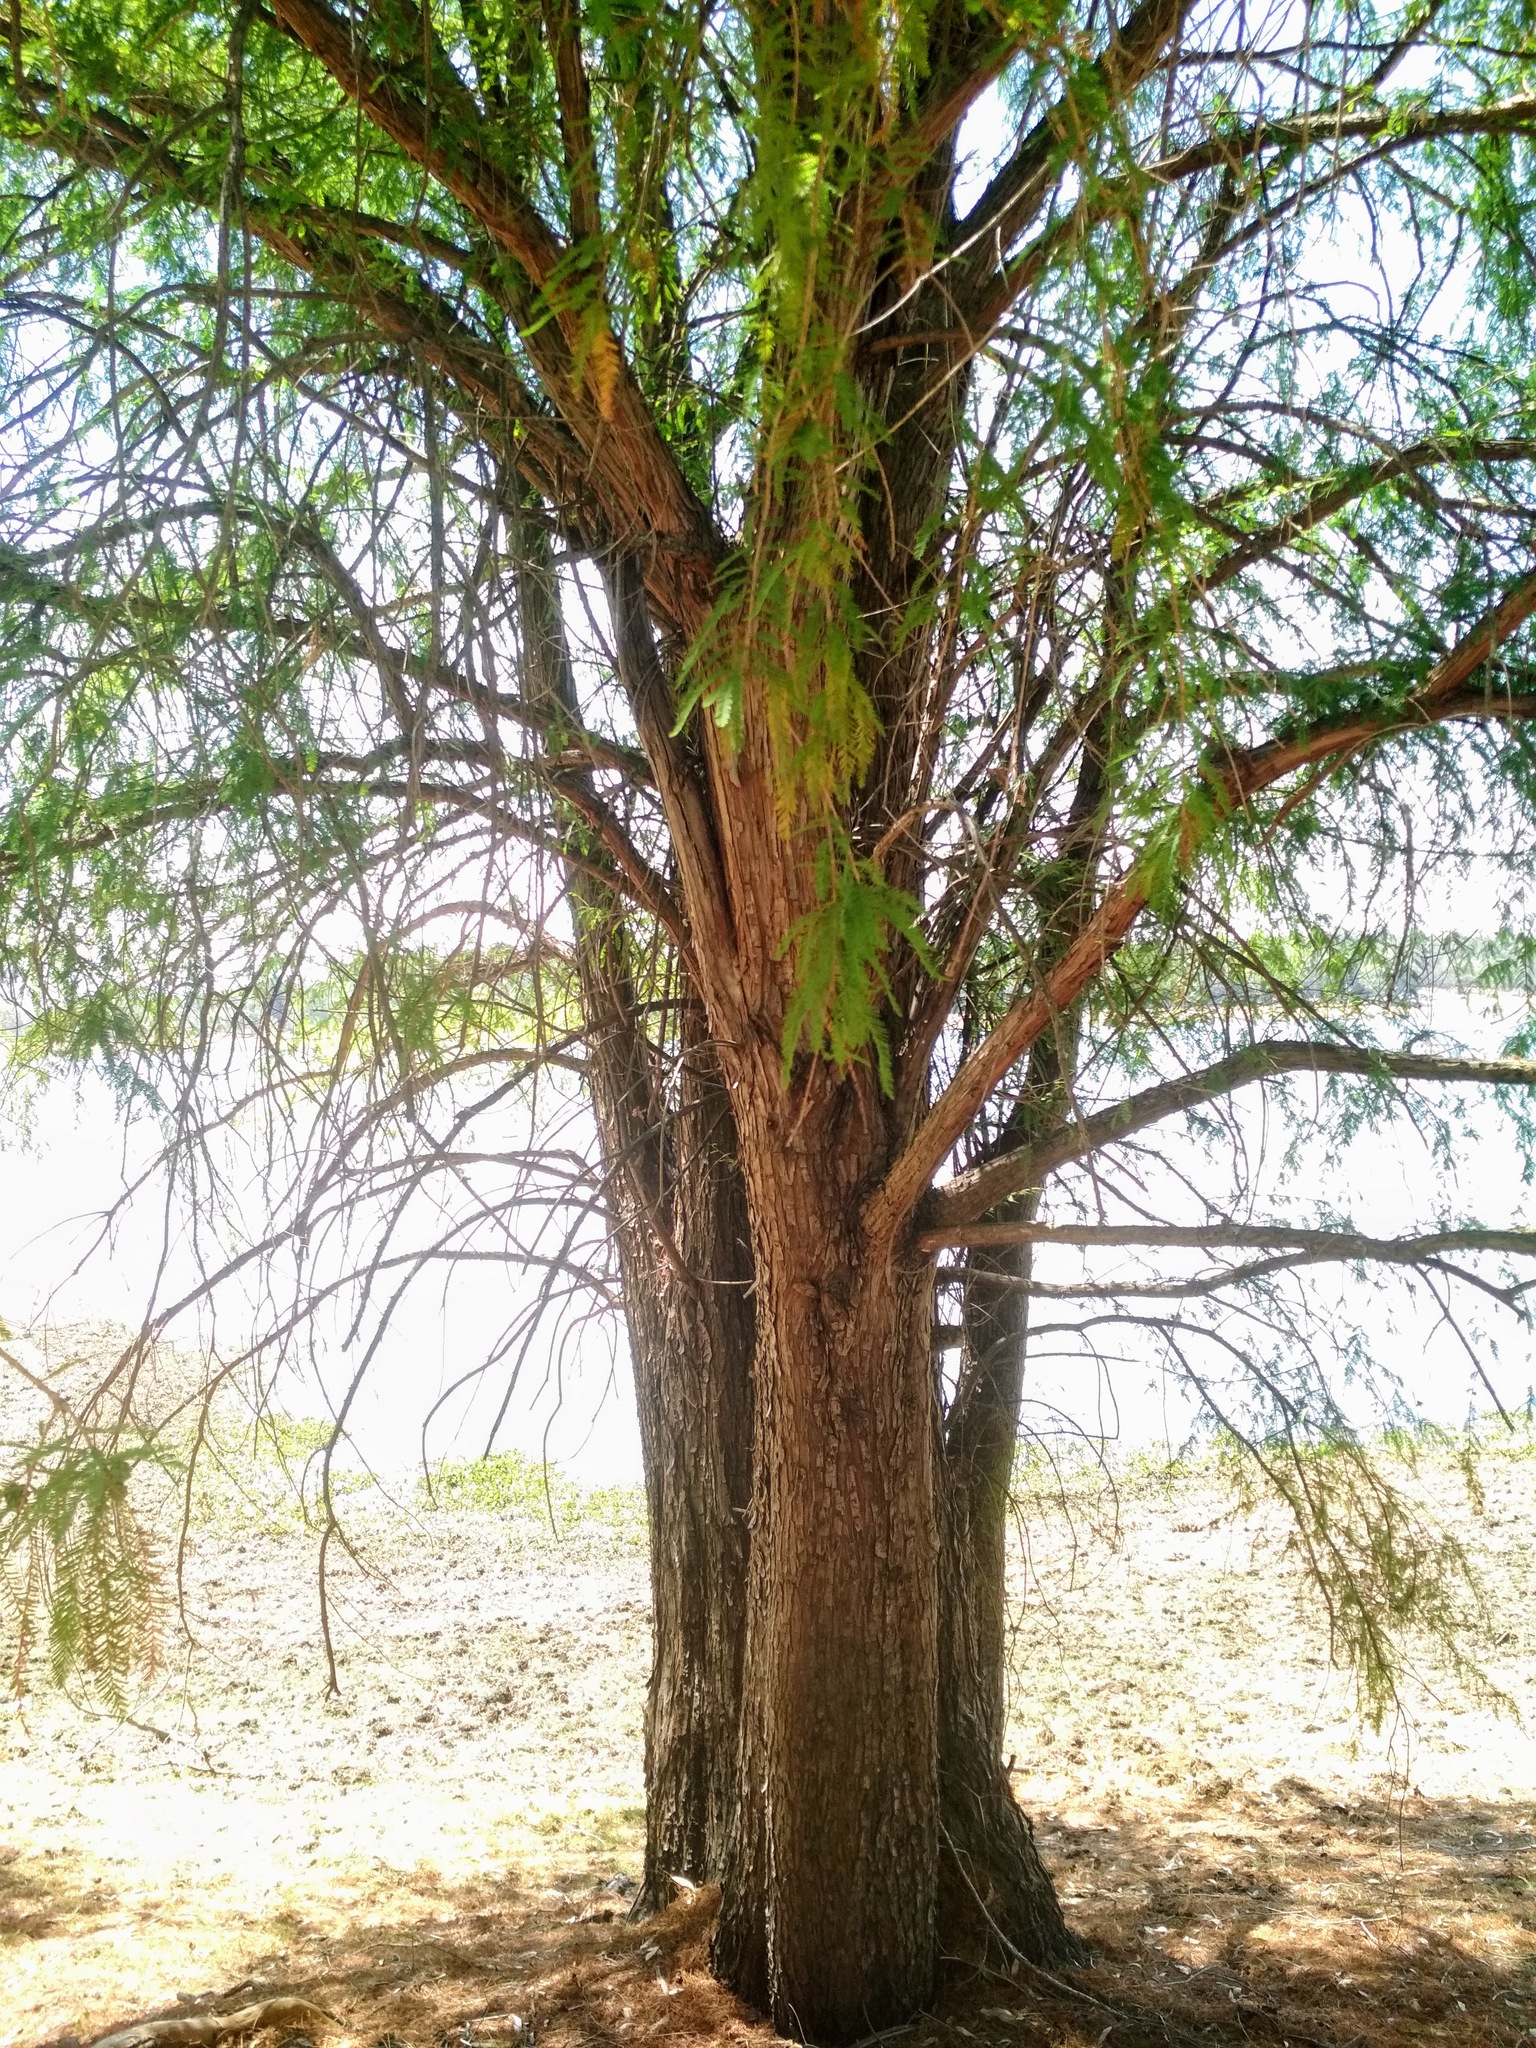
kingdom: Plantae
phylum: Tracheophyta
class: Pinopsida
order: Pinales
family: Cupressaceae
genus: Taxodium
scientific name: Taxodium mucronatum
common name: Montezume bald cypress
